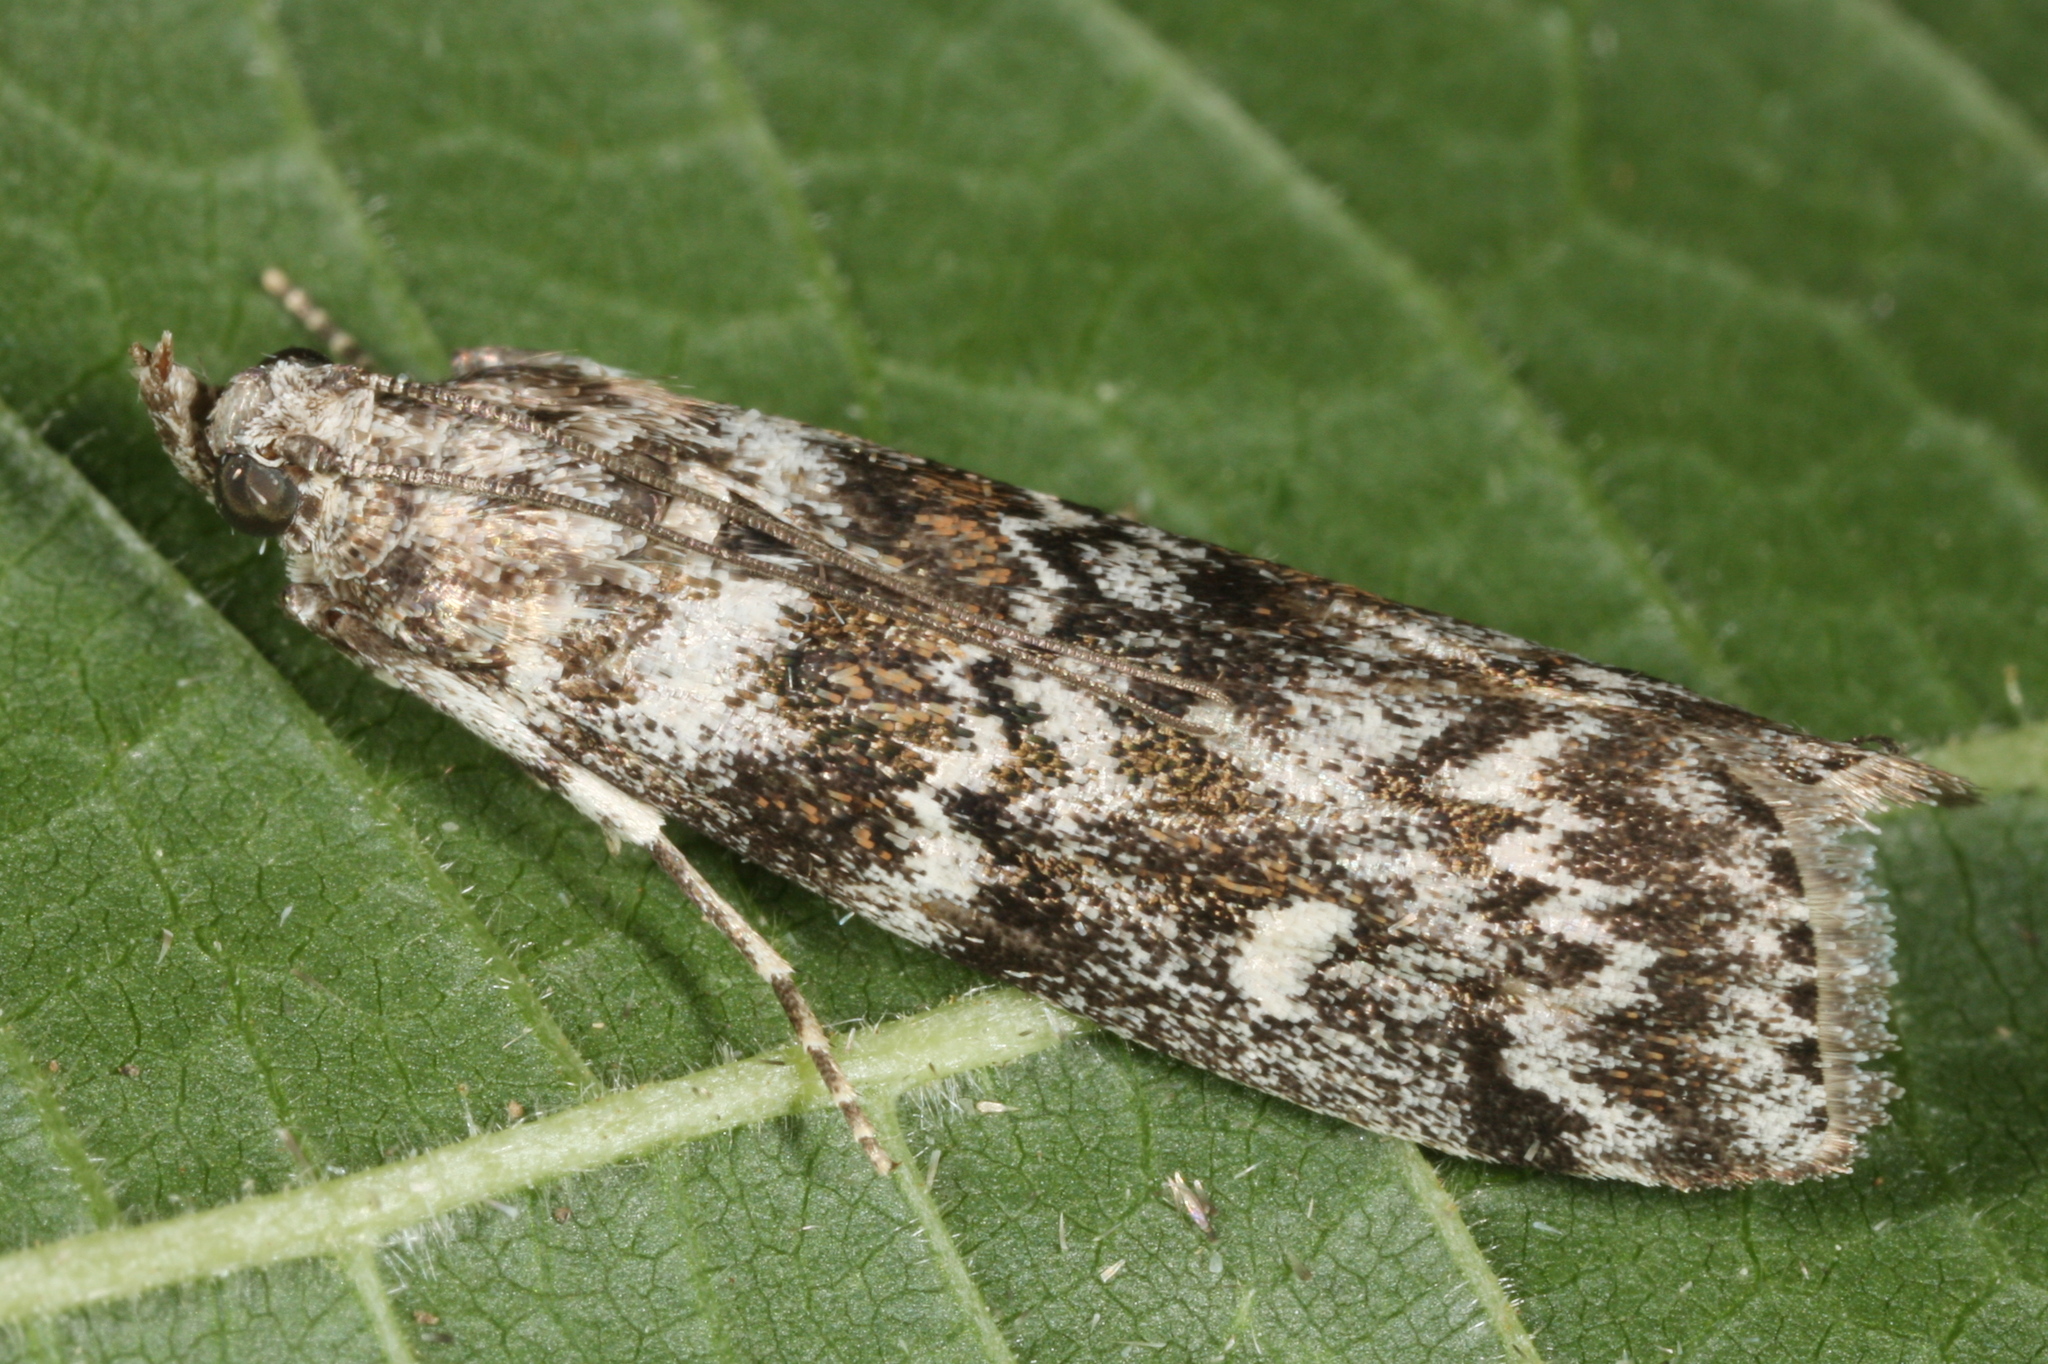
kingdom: Animalia
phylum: Arthropoda
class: Insecta
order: Lepidoptera
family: Pyralidae
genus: Dioryctria
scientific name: Dioryctria abietella
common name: Dark pine knot-horn
